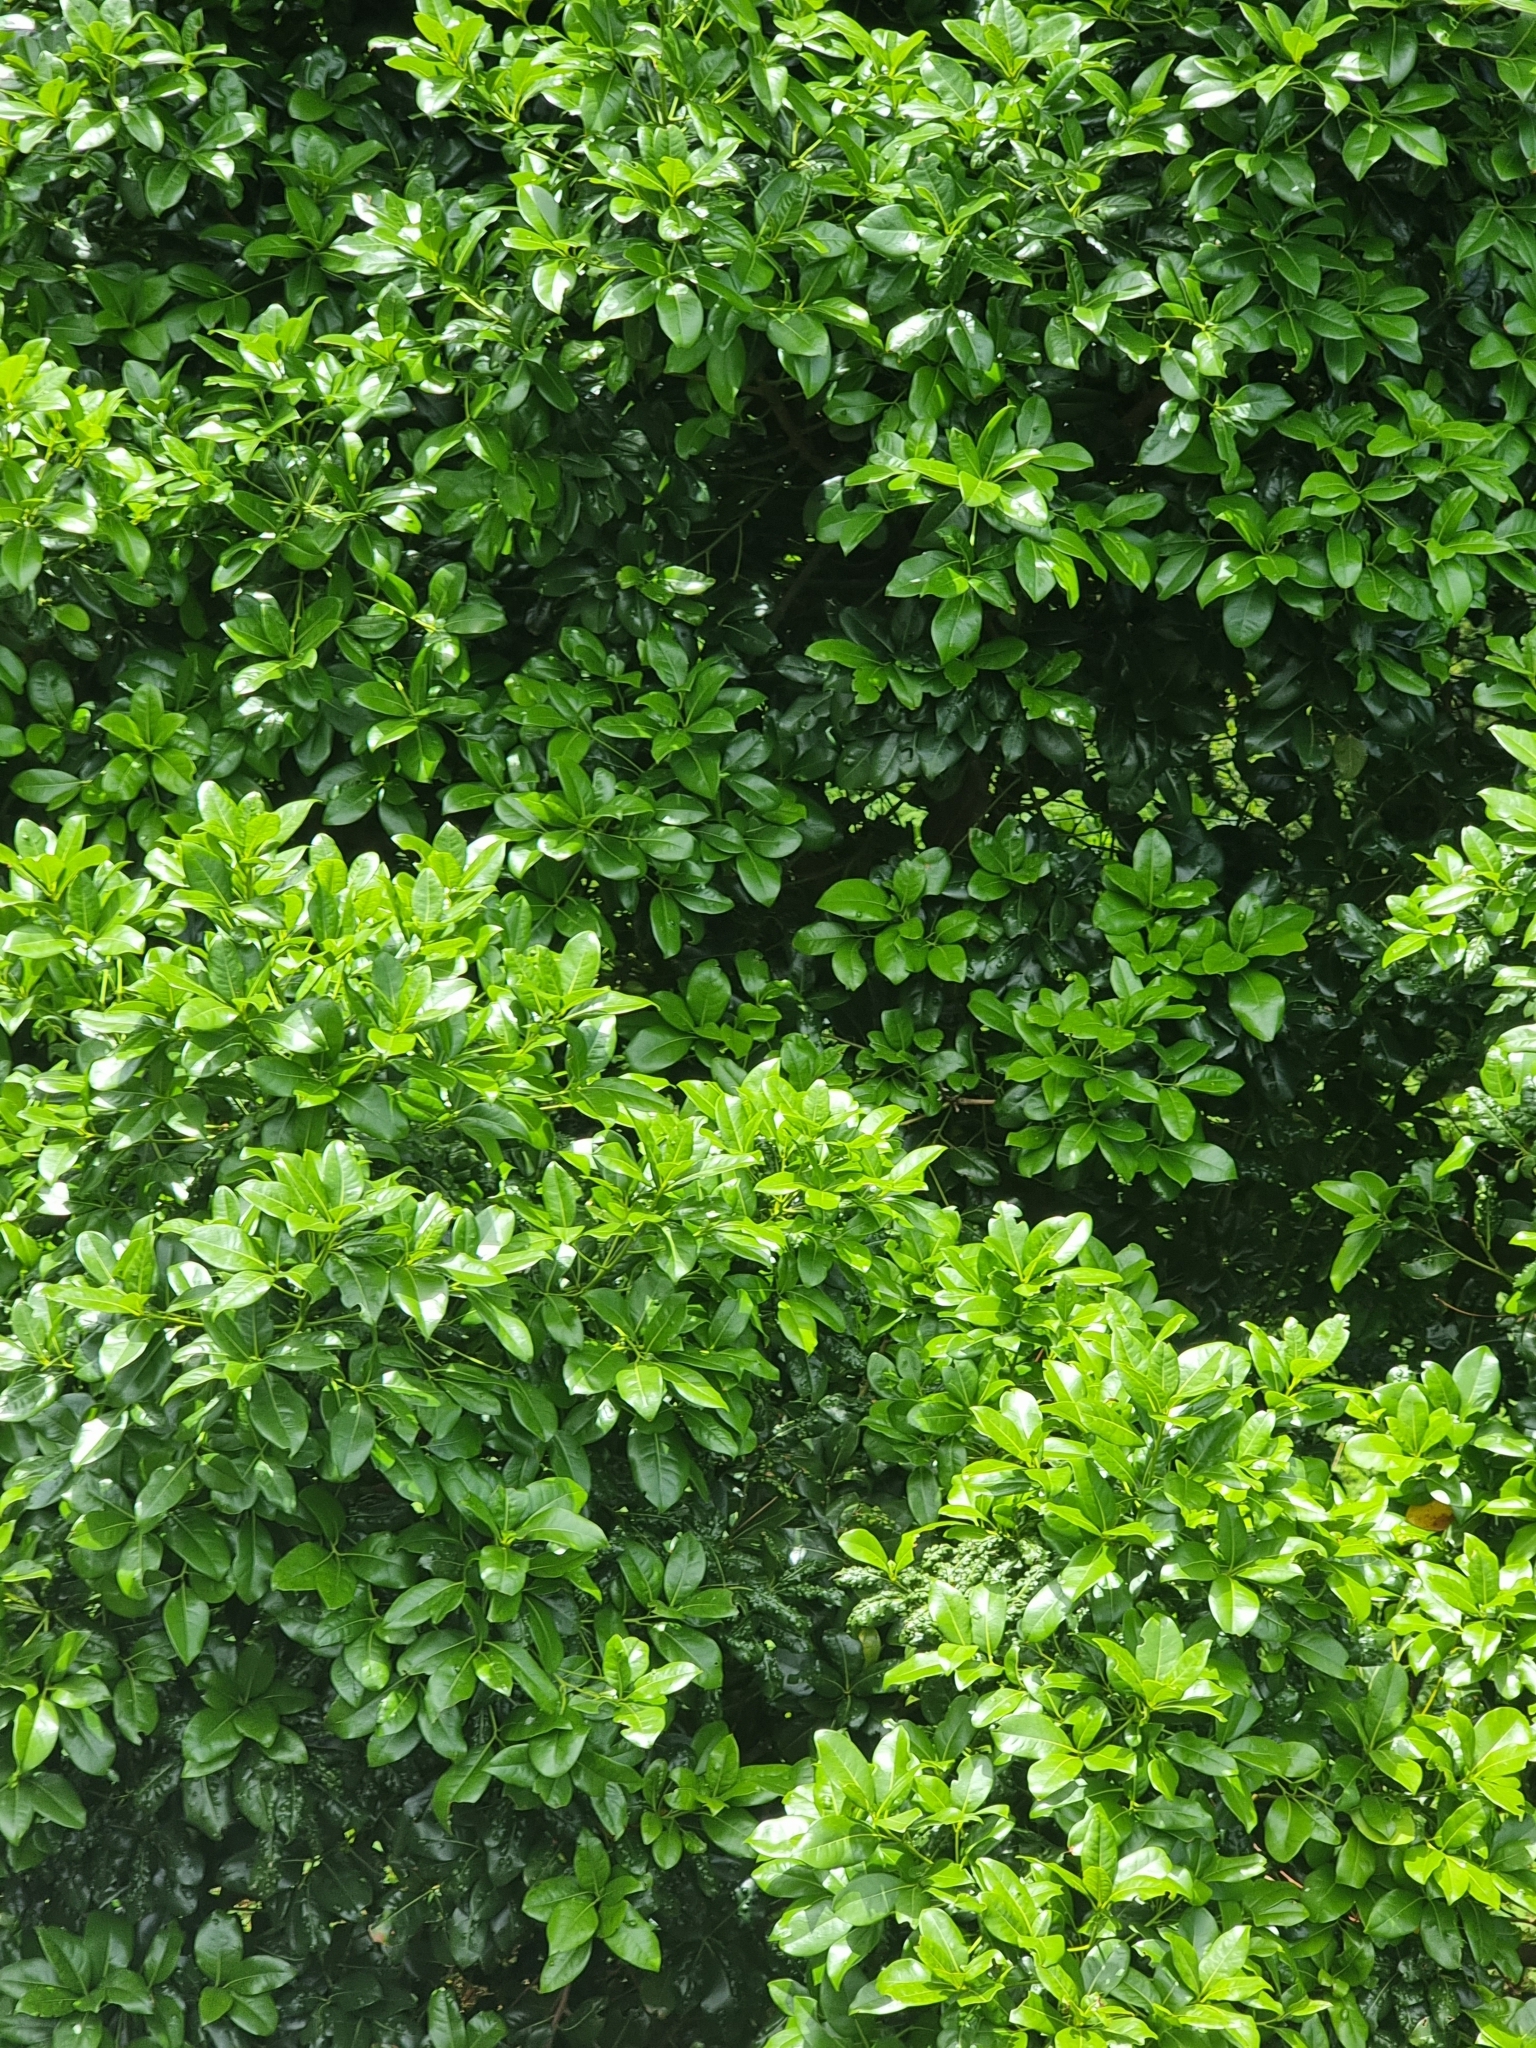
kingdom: Plantae
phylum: Tracheophyta
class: Magnoliopsida
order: Laurales
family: Lauraceae
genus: Apollonias
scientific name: Apollonias barbujana
